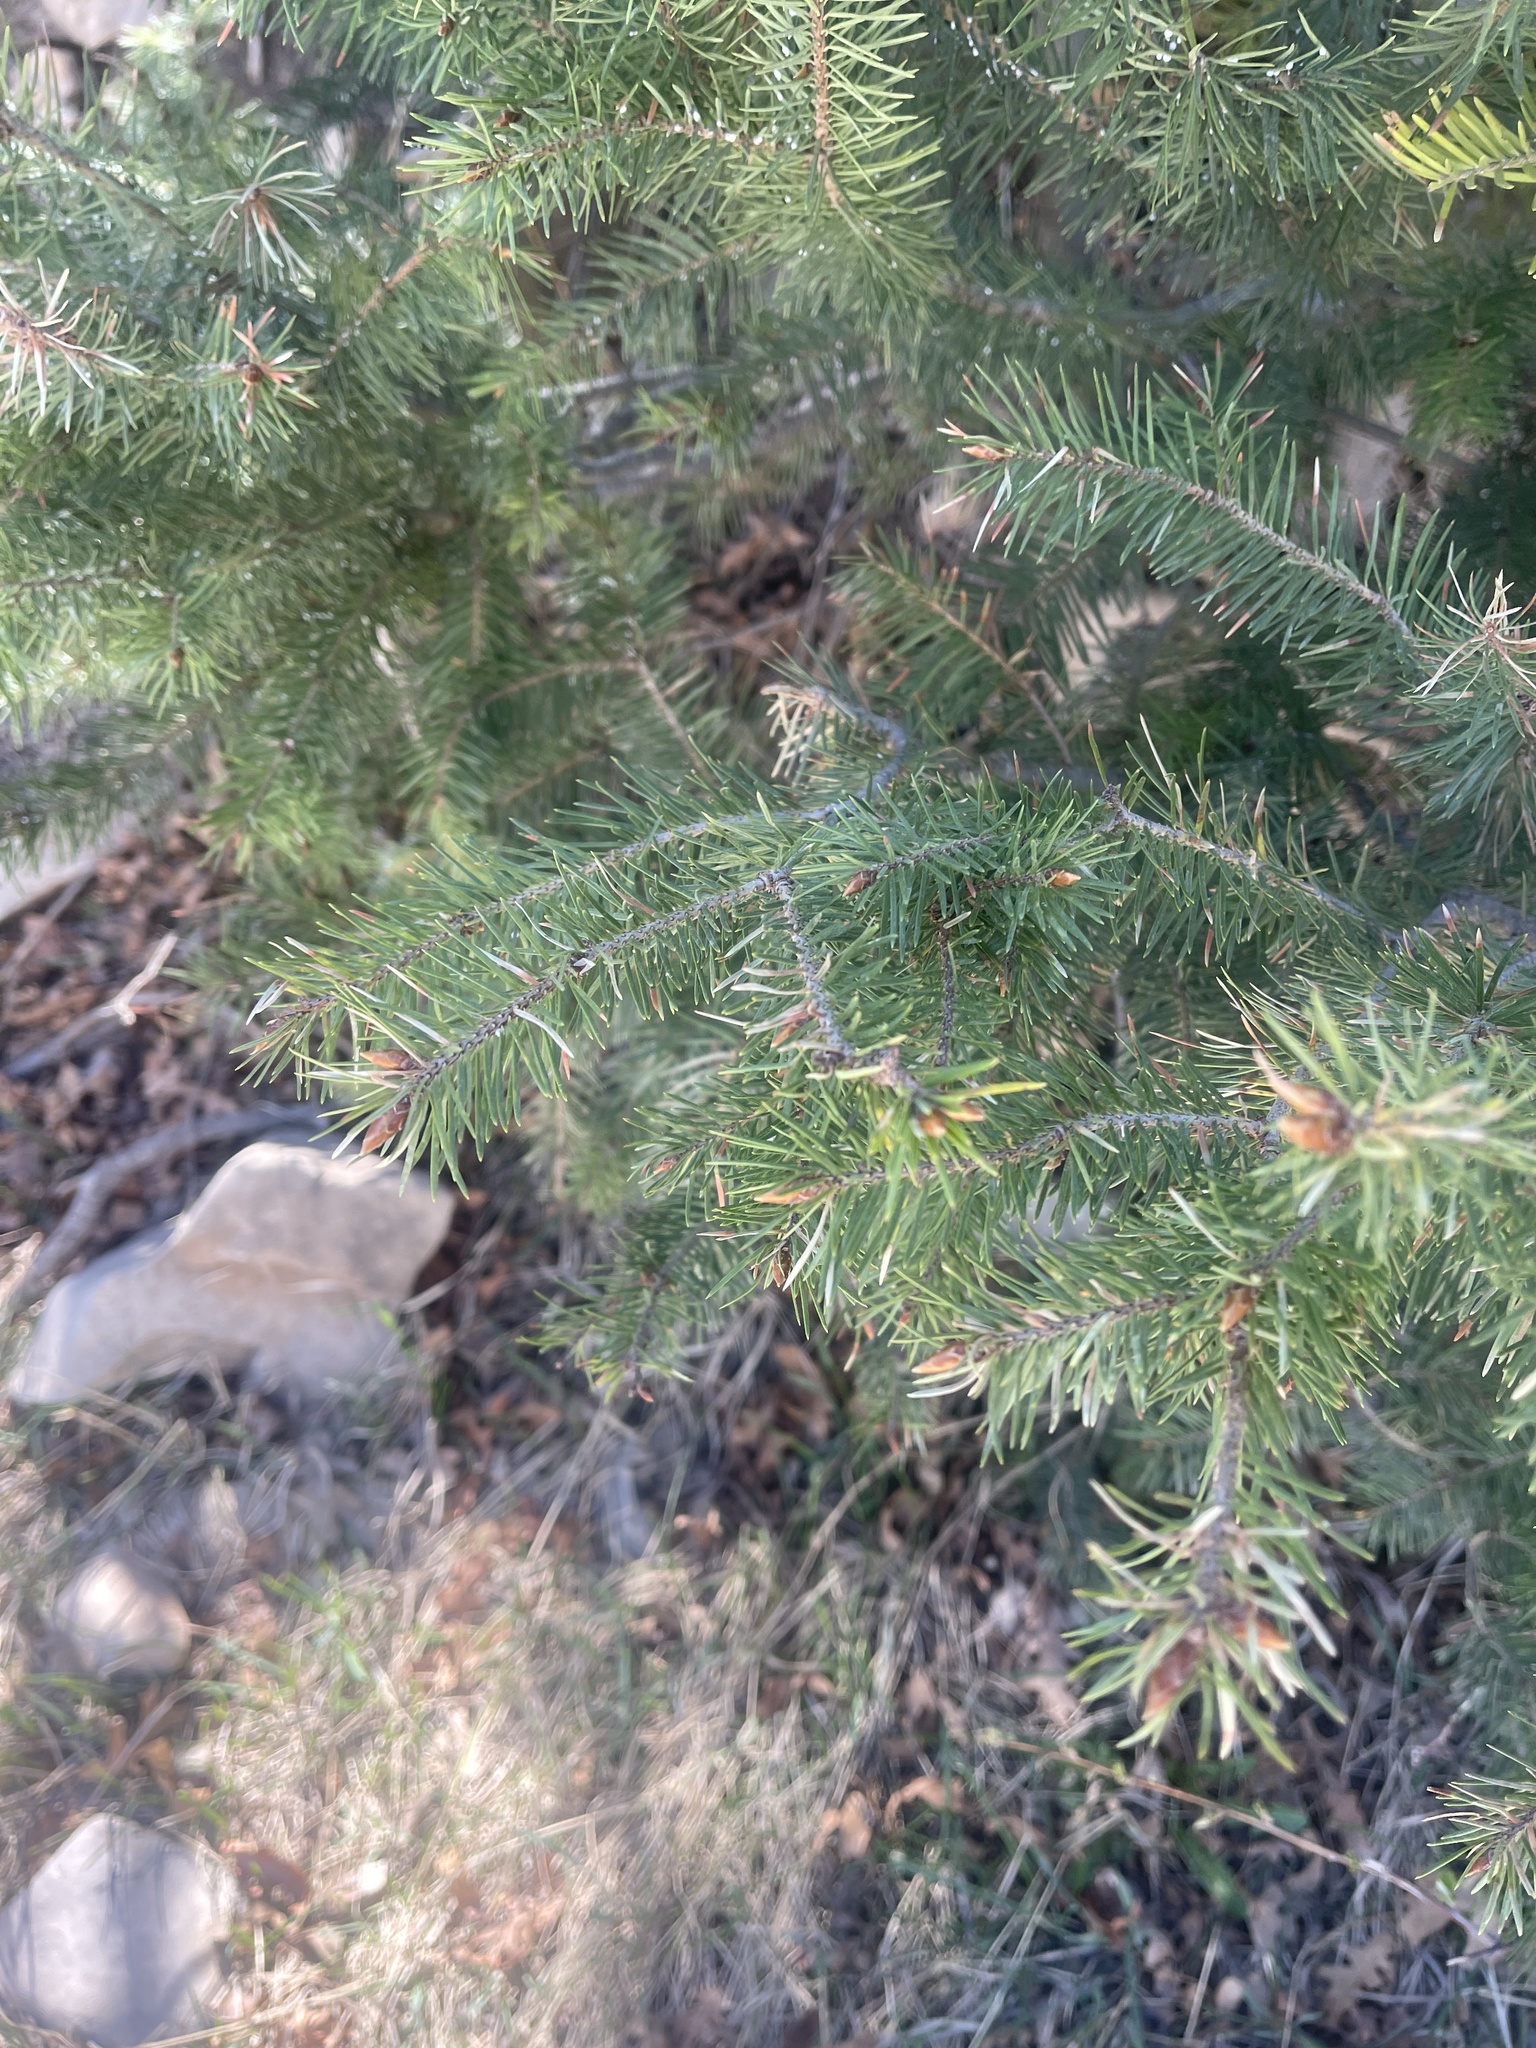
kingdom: Plantae
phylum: Tracheophyta
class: Pinopsida
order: Pinales
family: Pinaceae
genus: Pseudotsuga
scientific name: Pseudotsuga menziesii
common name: Douglas fir
